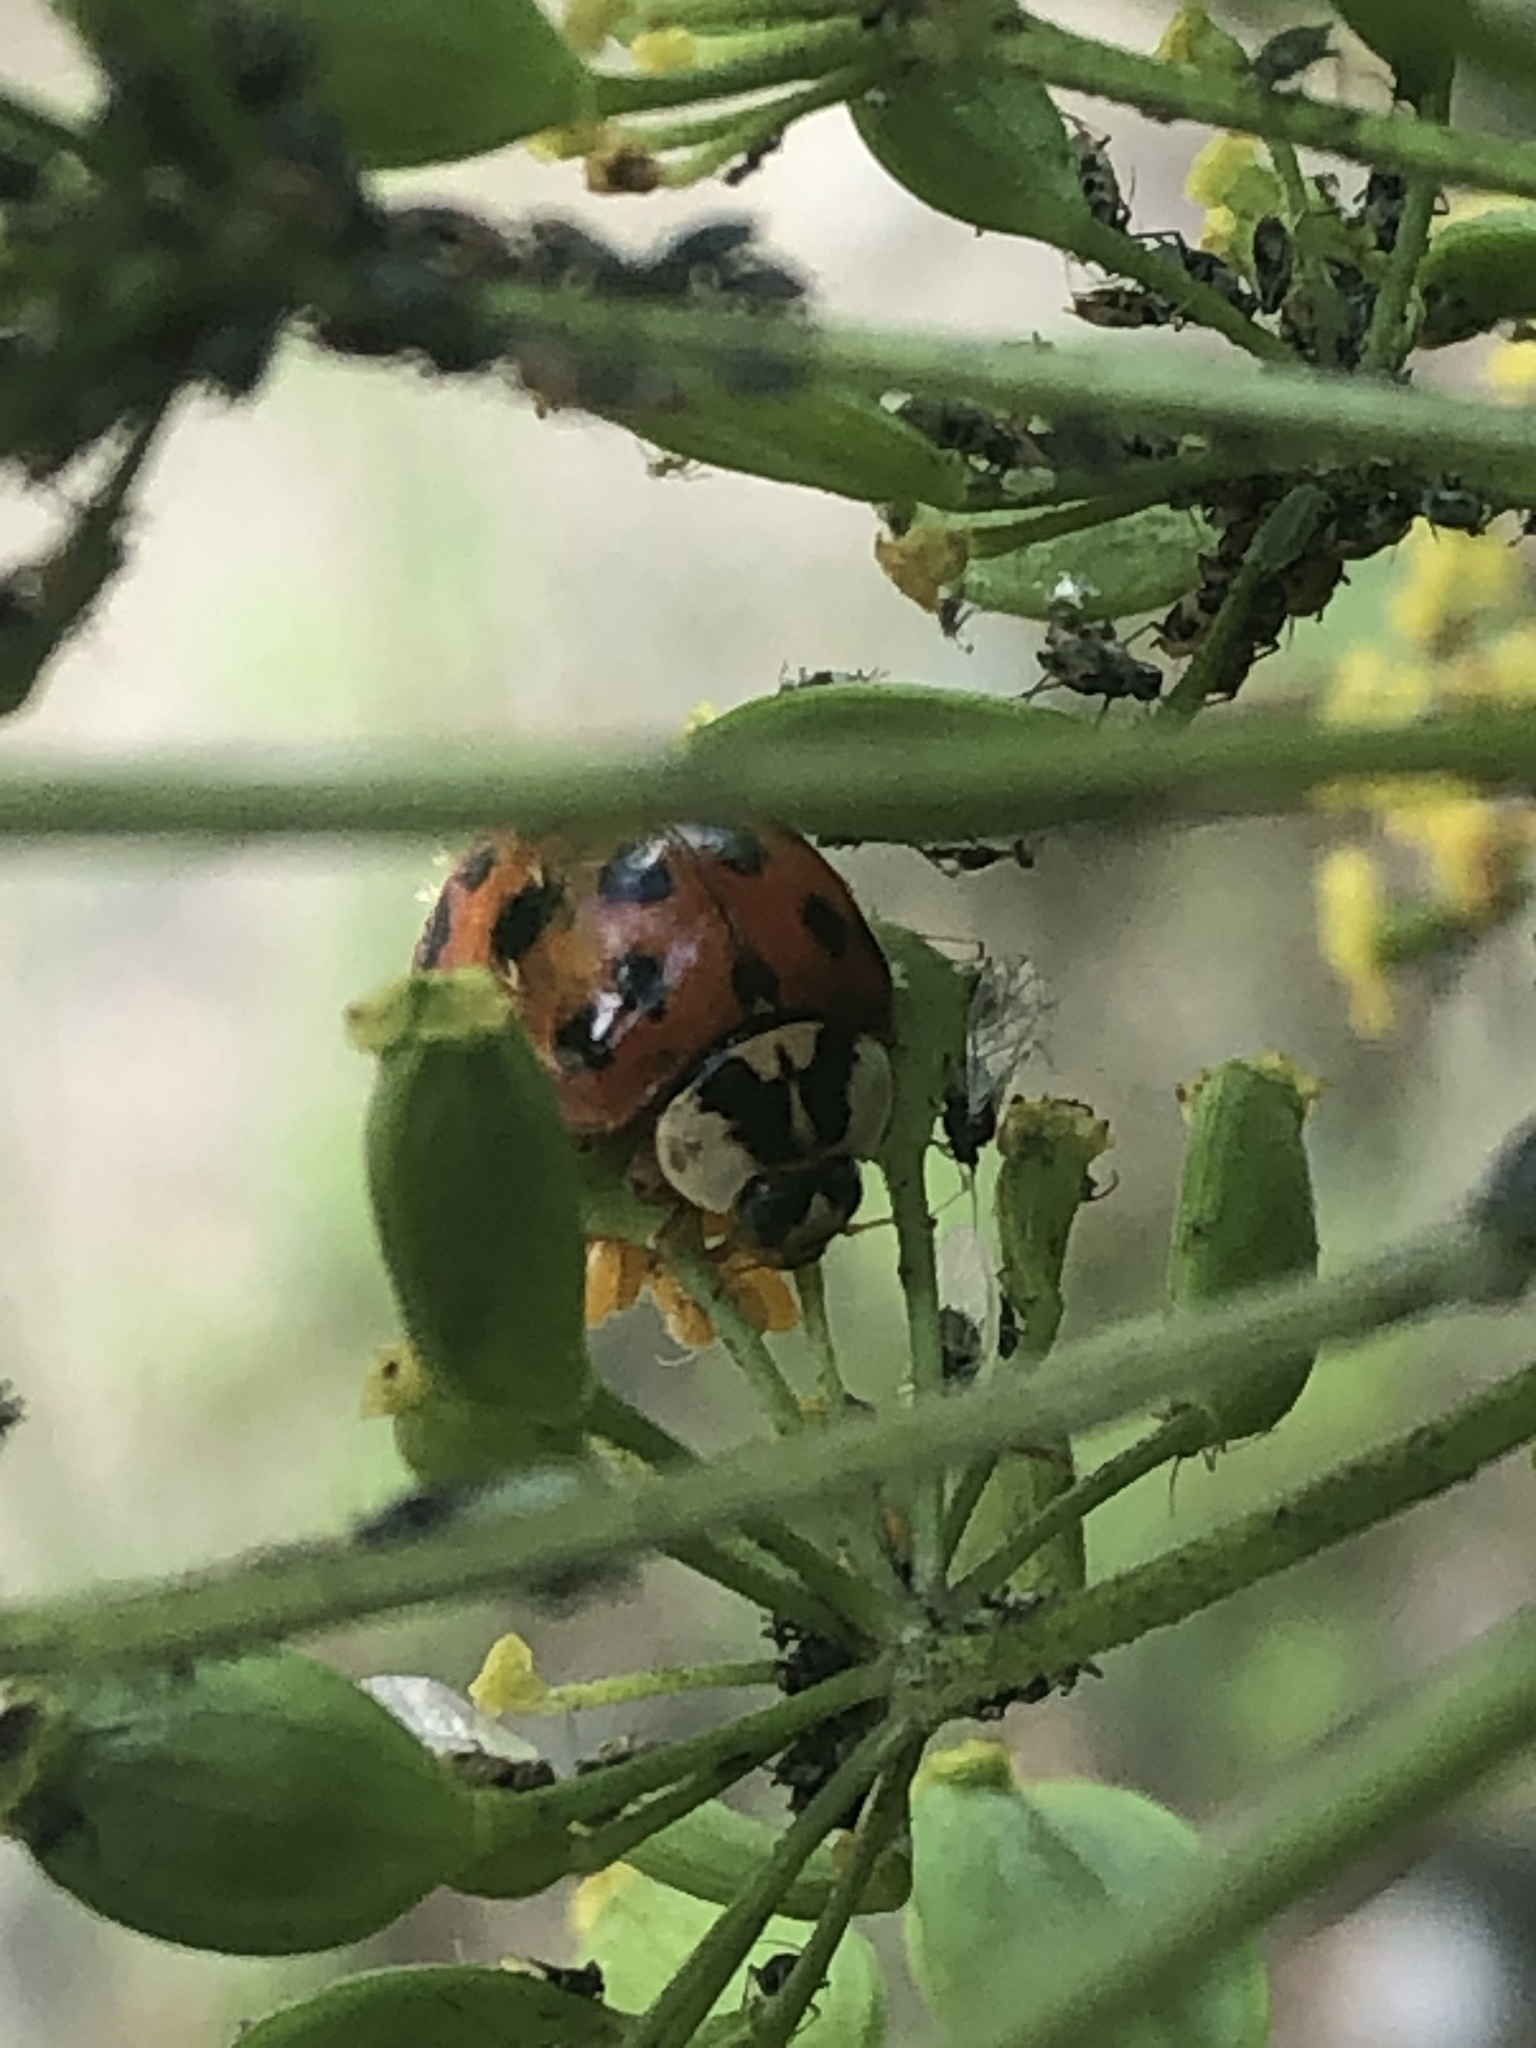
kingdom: Animalia
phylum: Arthropoda
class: Insecta
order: Coleoptera
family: Coccinellidae
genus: Harmonia
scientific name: Harmonia axyridis
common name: Harlequin ladybird
